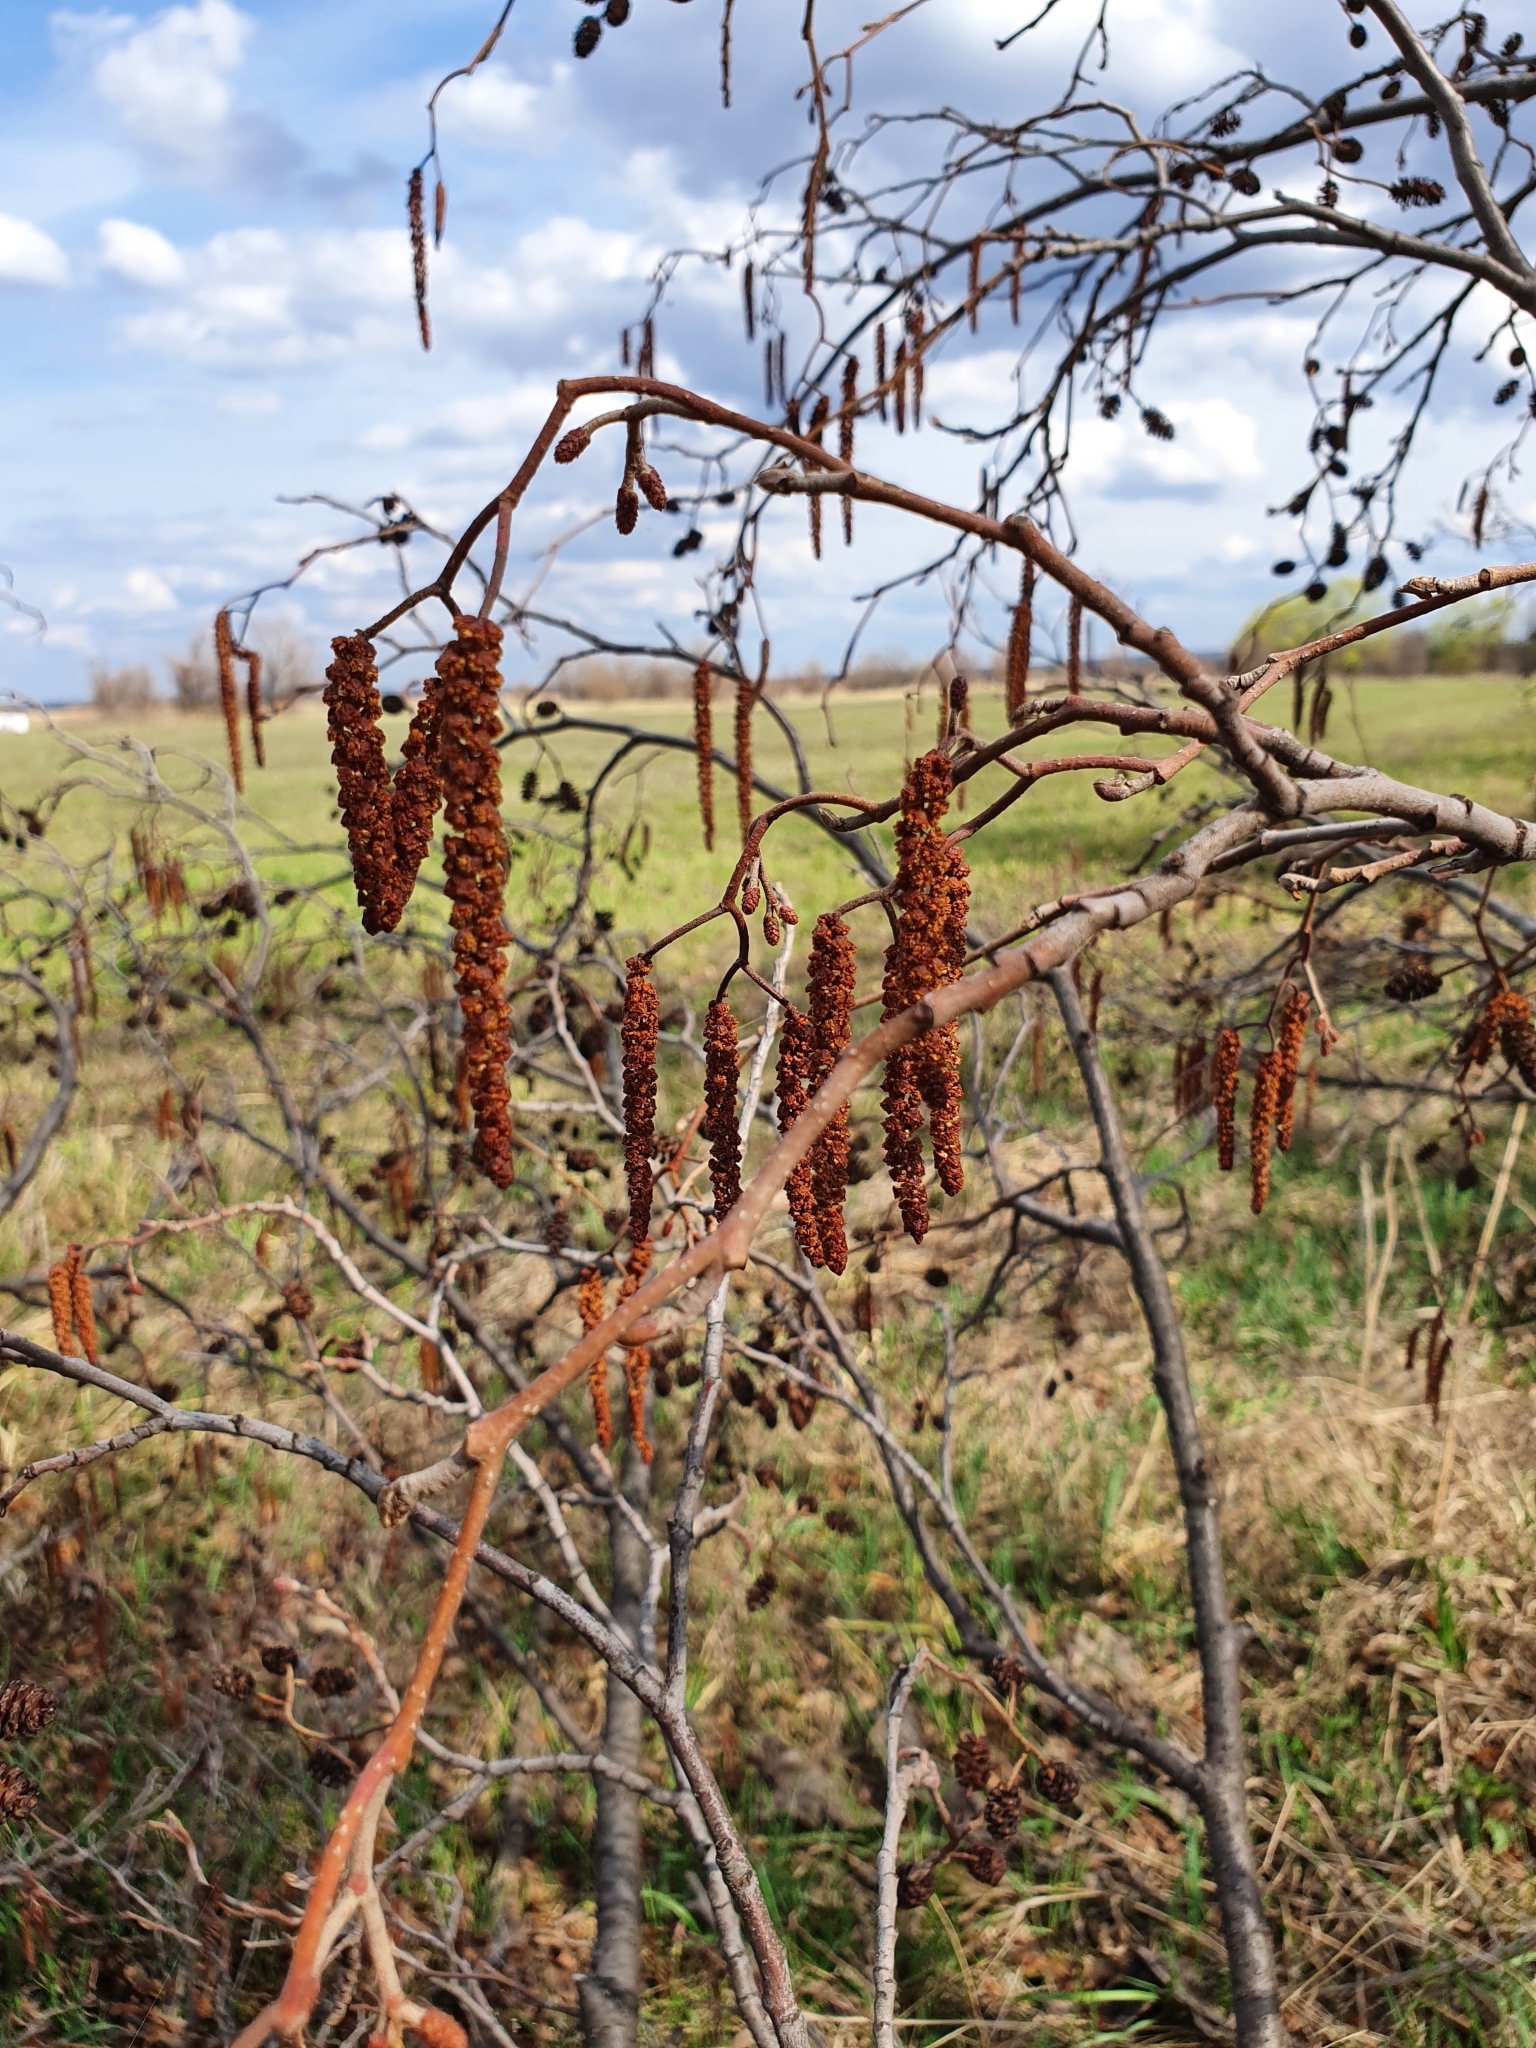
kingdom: Plantae
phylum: Tracheophyta
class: Magnoliopsida
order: Fagales
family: Betulaceae
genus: Alnus
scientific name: Alnus glutinosa
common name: Black alder
